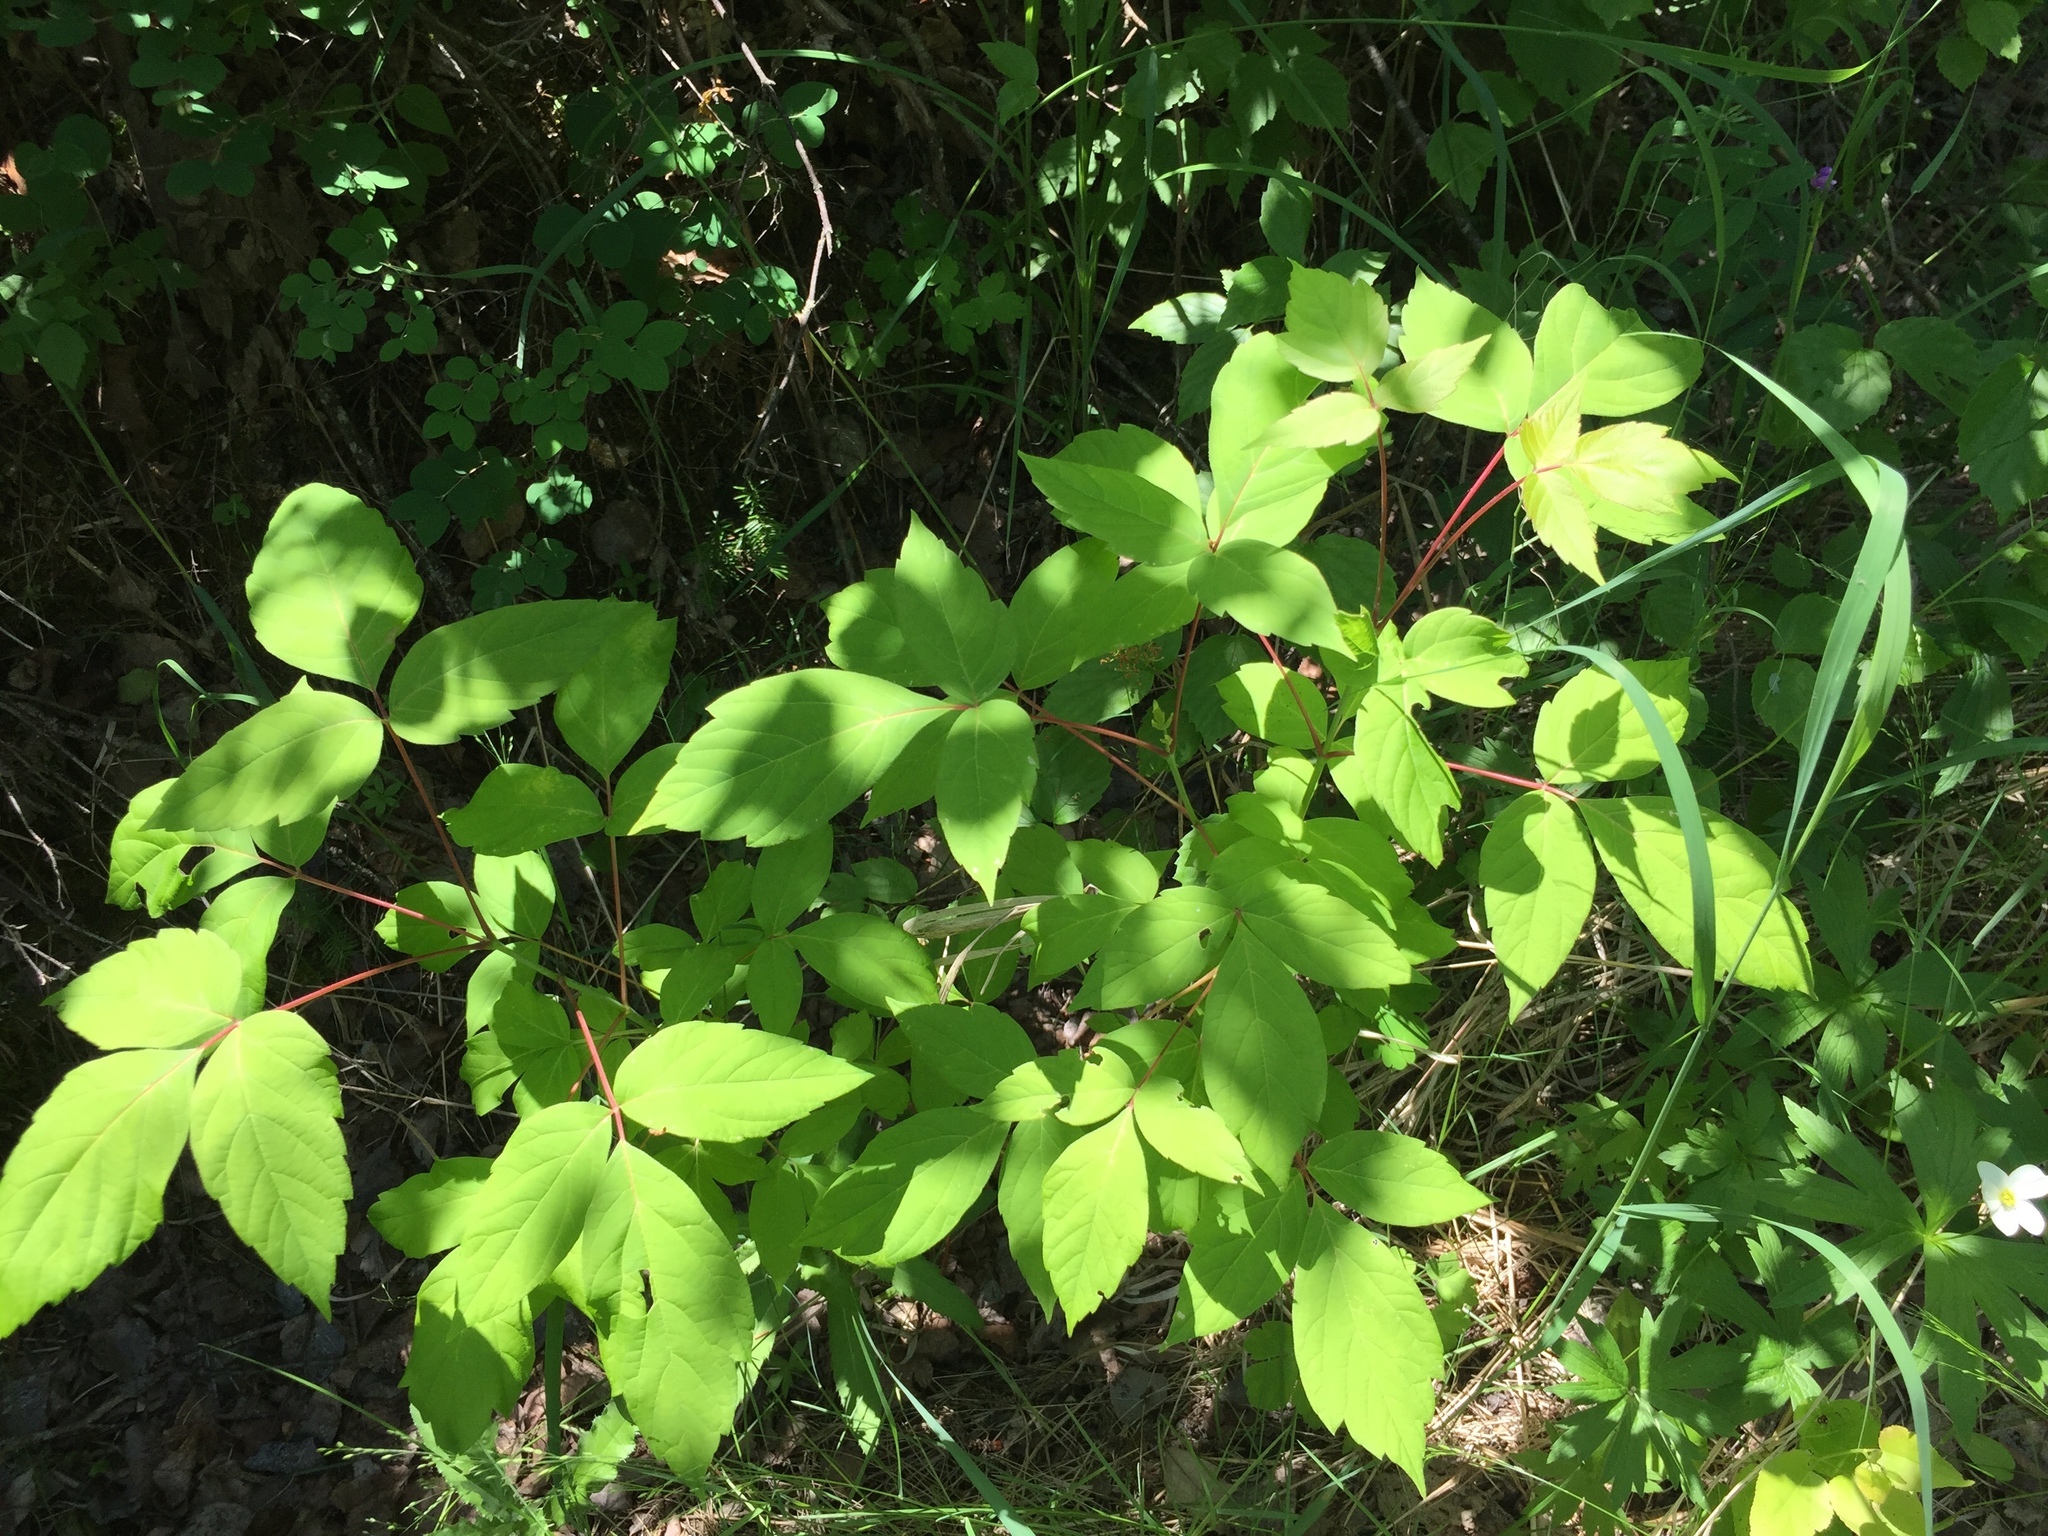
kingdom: Plantae
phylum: Tracheophyta
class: Magnoliopsida
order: Sapindales
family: Sapindaceae
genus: Acer
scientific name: Acer negundo
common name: Ashleaf maple
